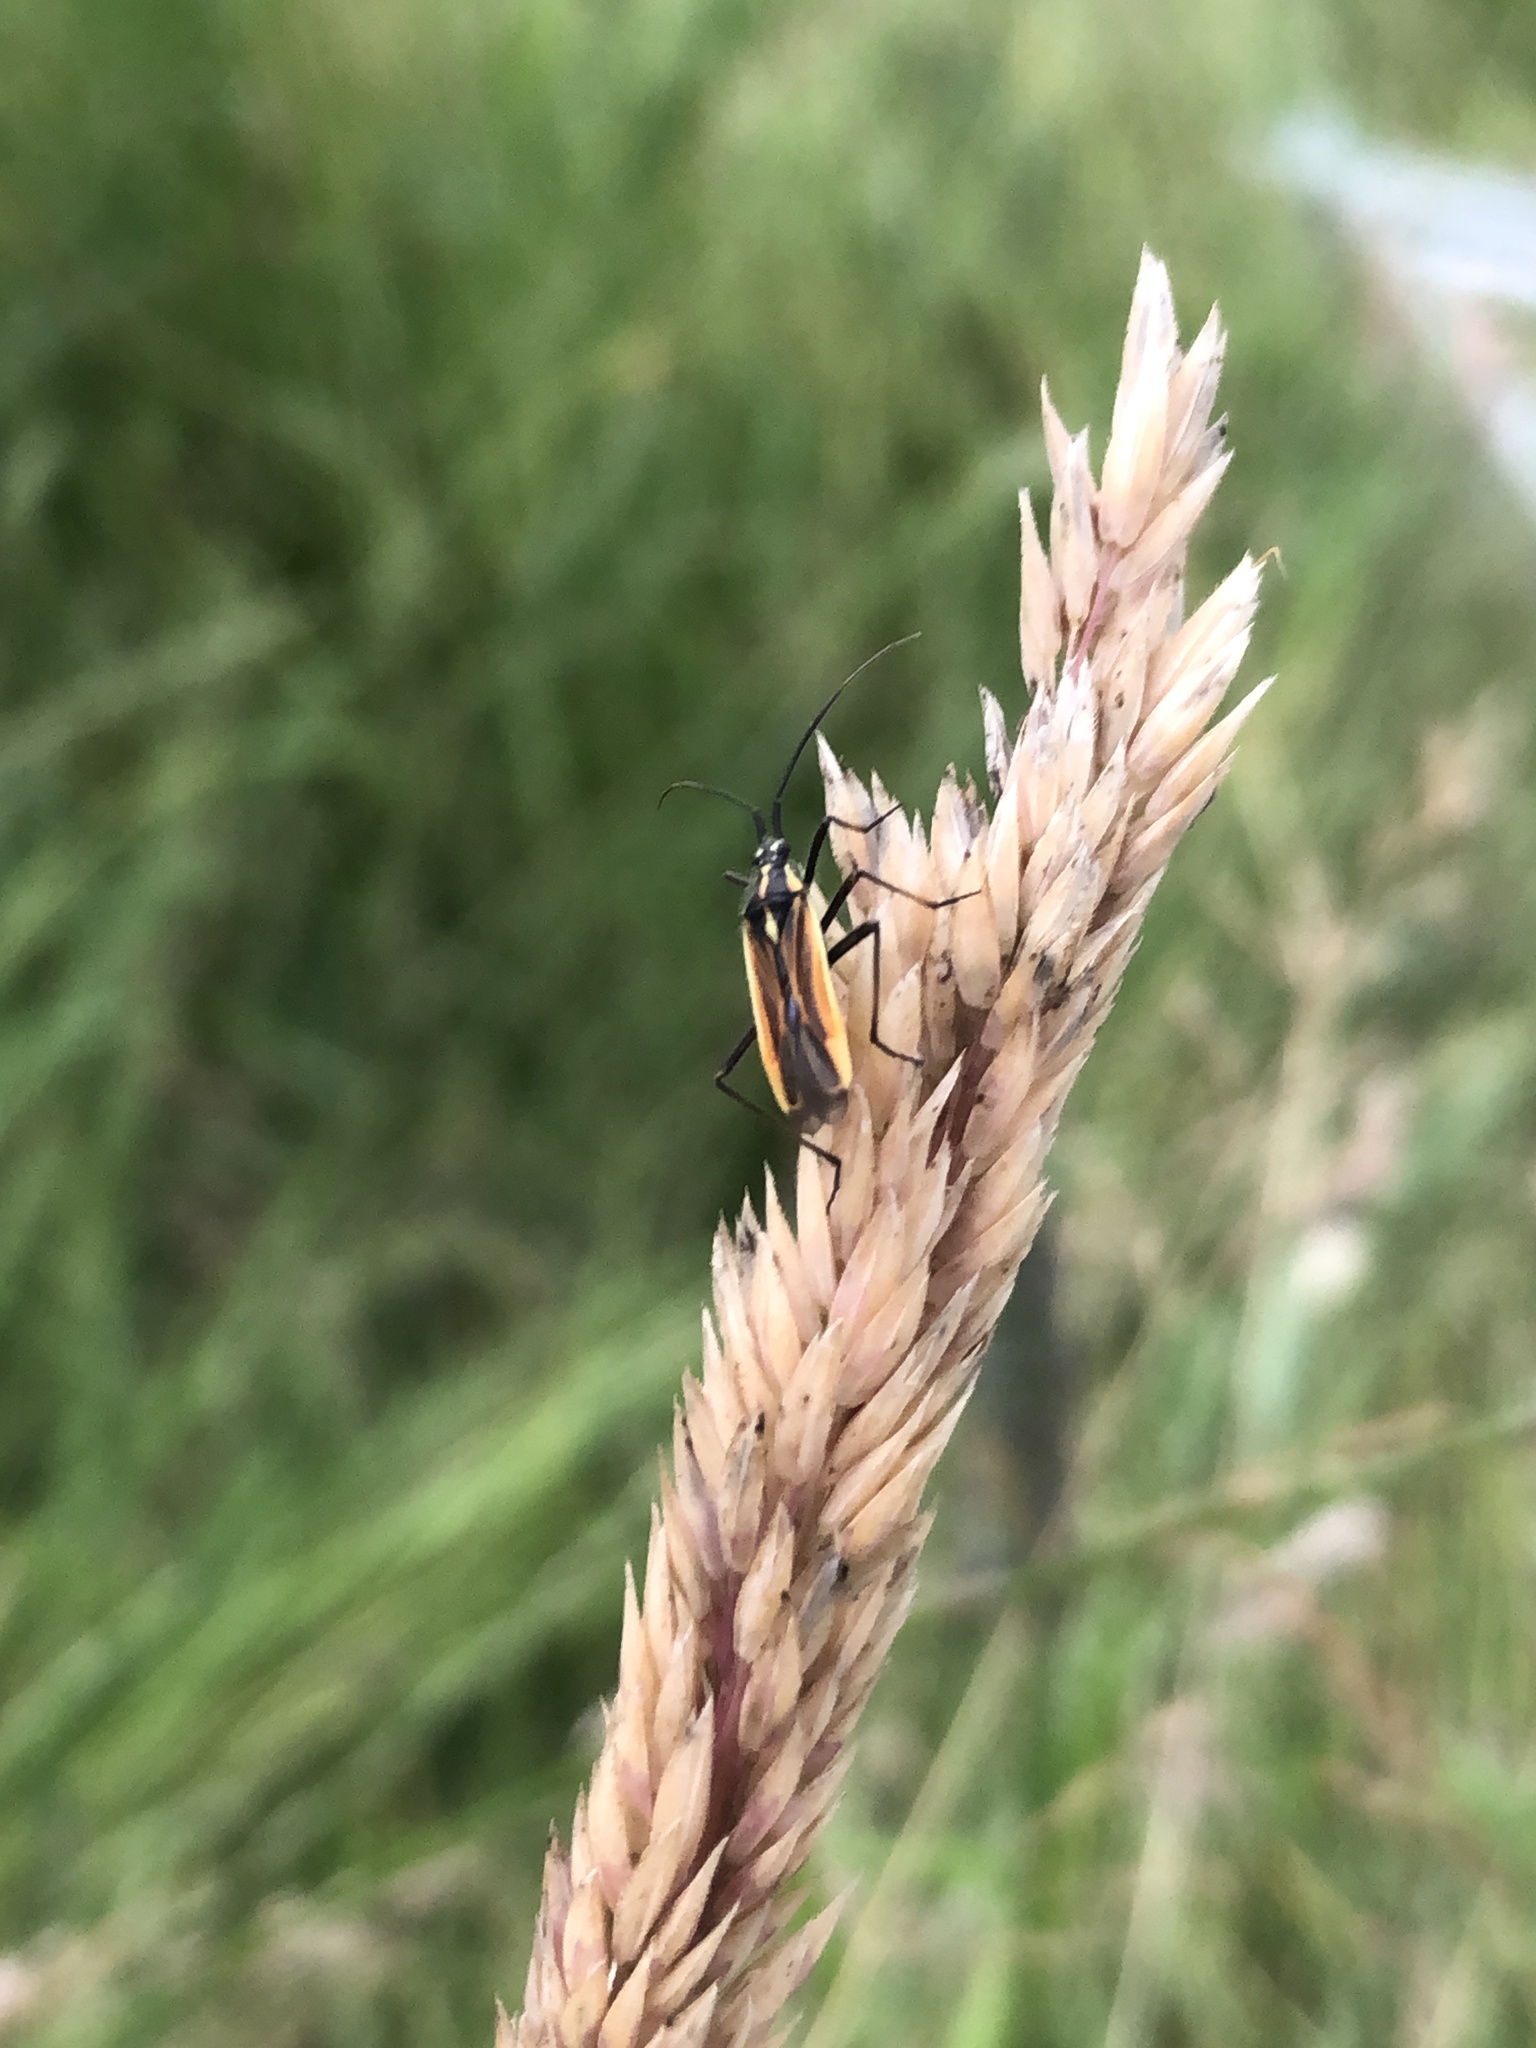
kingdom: Animalia
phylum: Arthropoda
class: Insecta
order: Hemiptera
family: Miridae
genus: Leptopterna
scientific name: Leptopterna dolabrata
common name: Meadow plant bug
